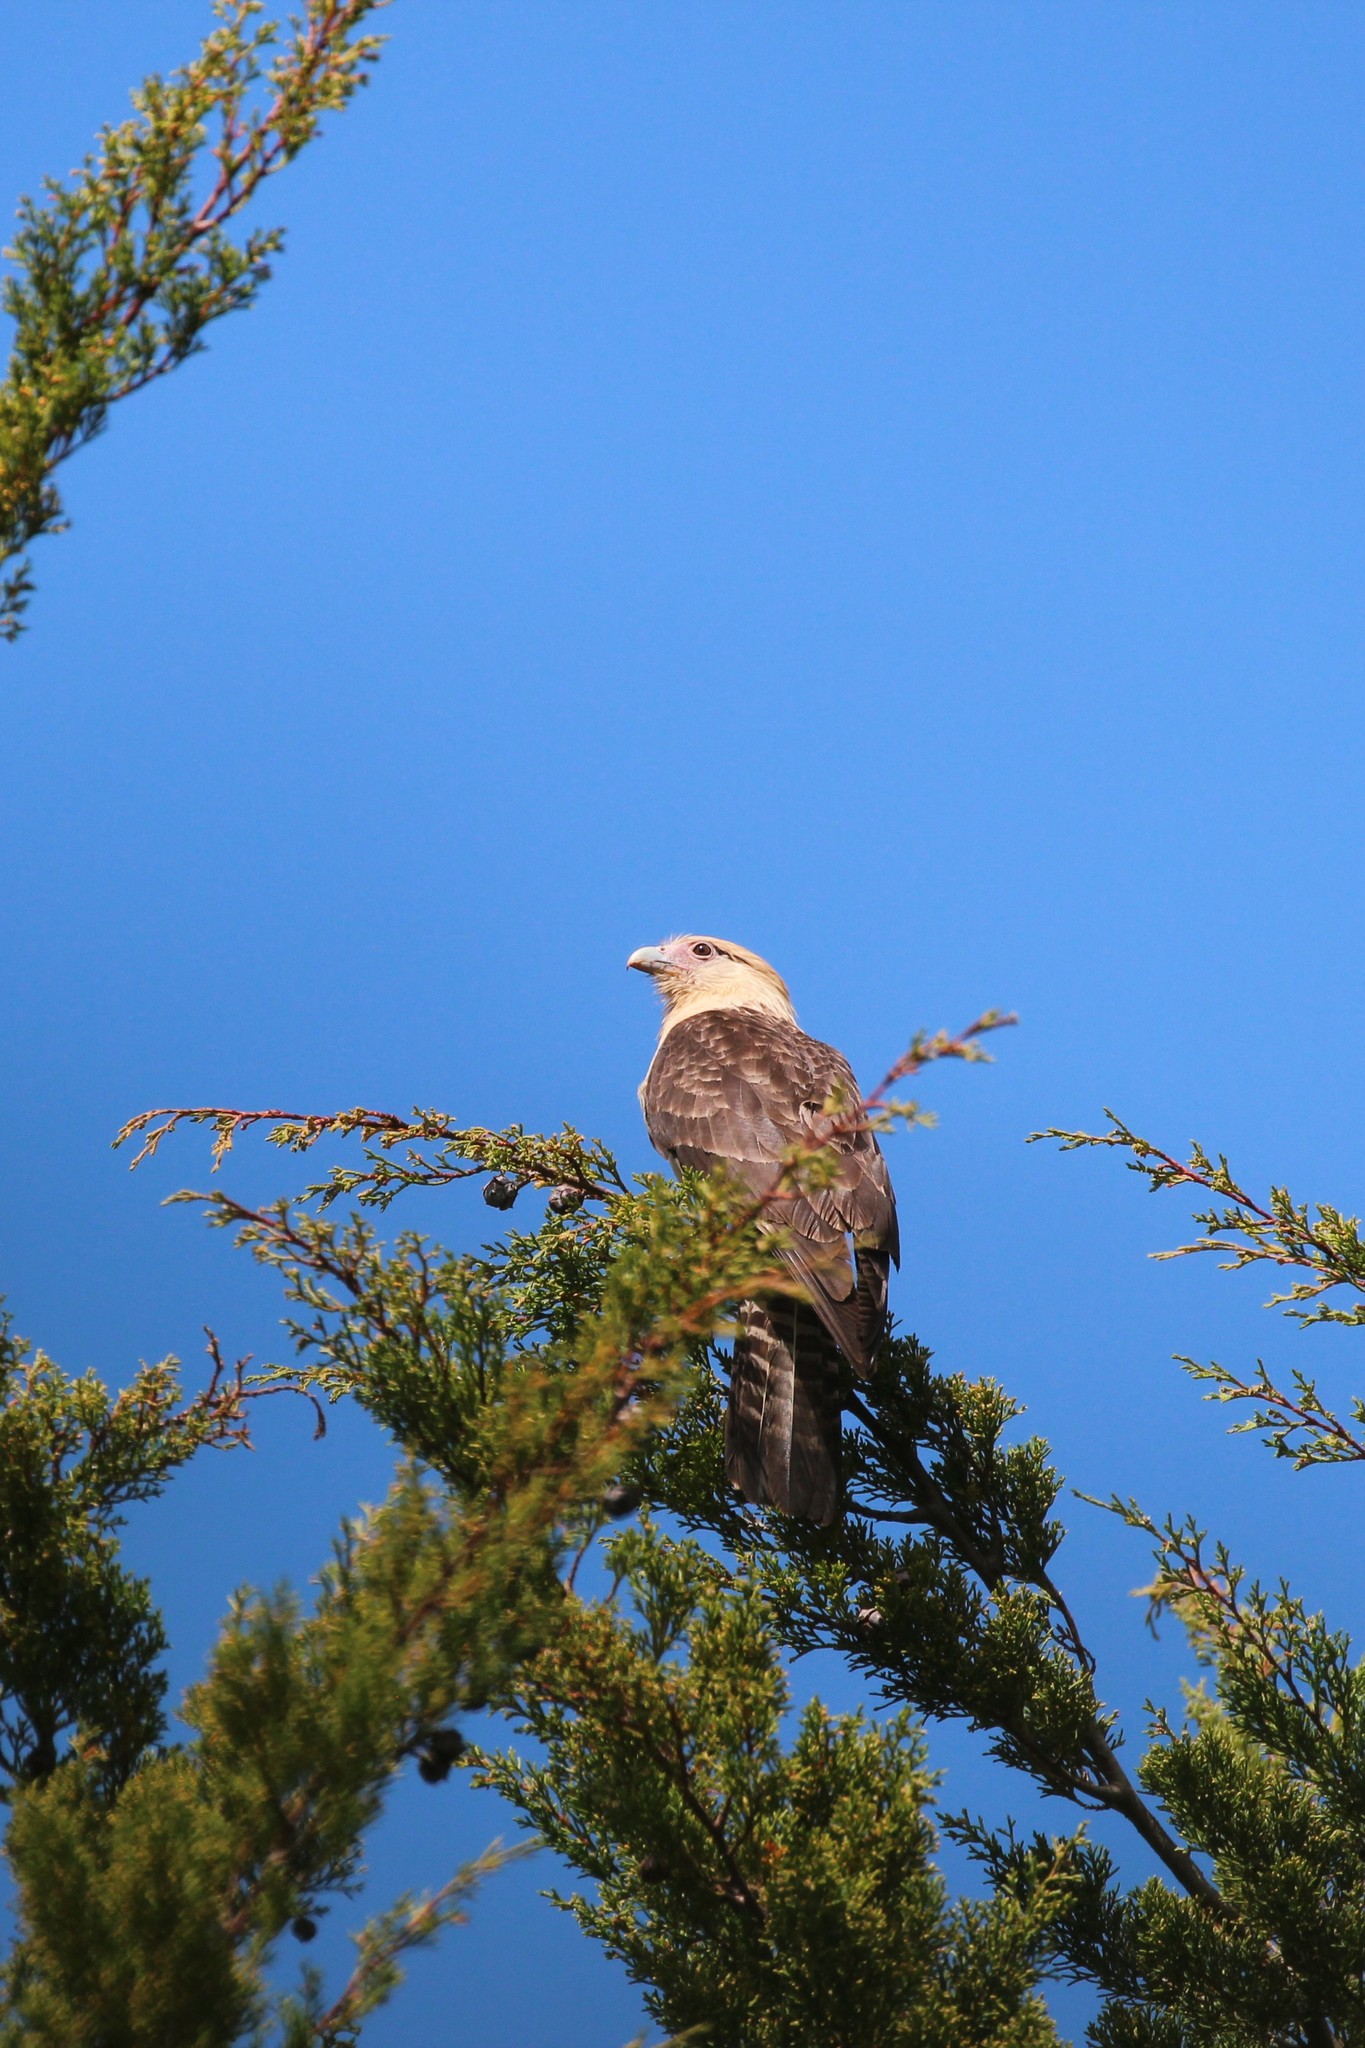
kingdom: Animalia
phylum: Chordata
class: Aves
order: Falconiformes
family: Falconidae
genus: Daptrius
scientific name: Daptrius
